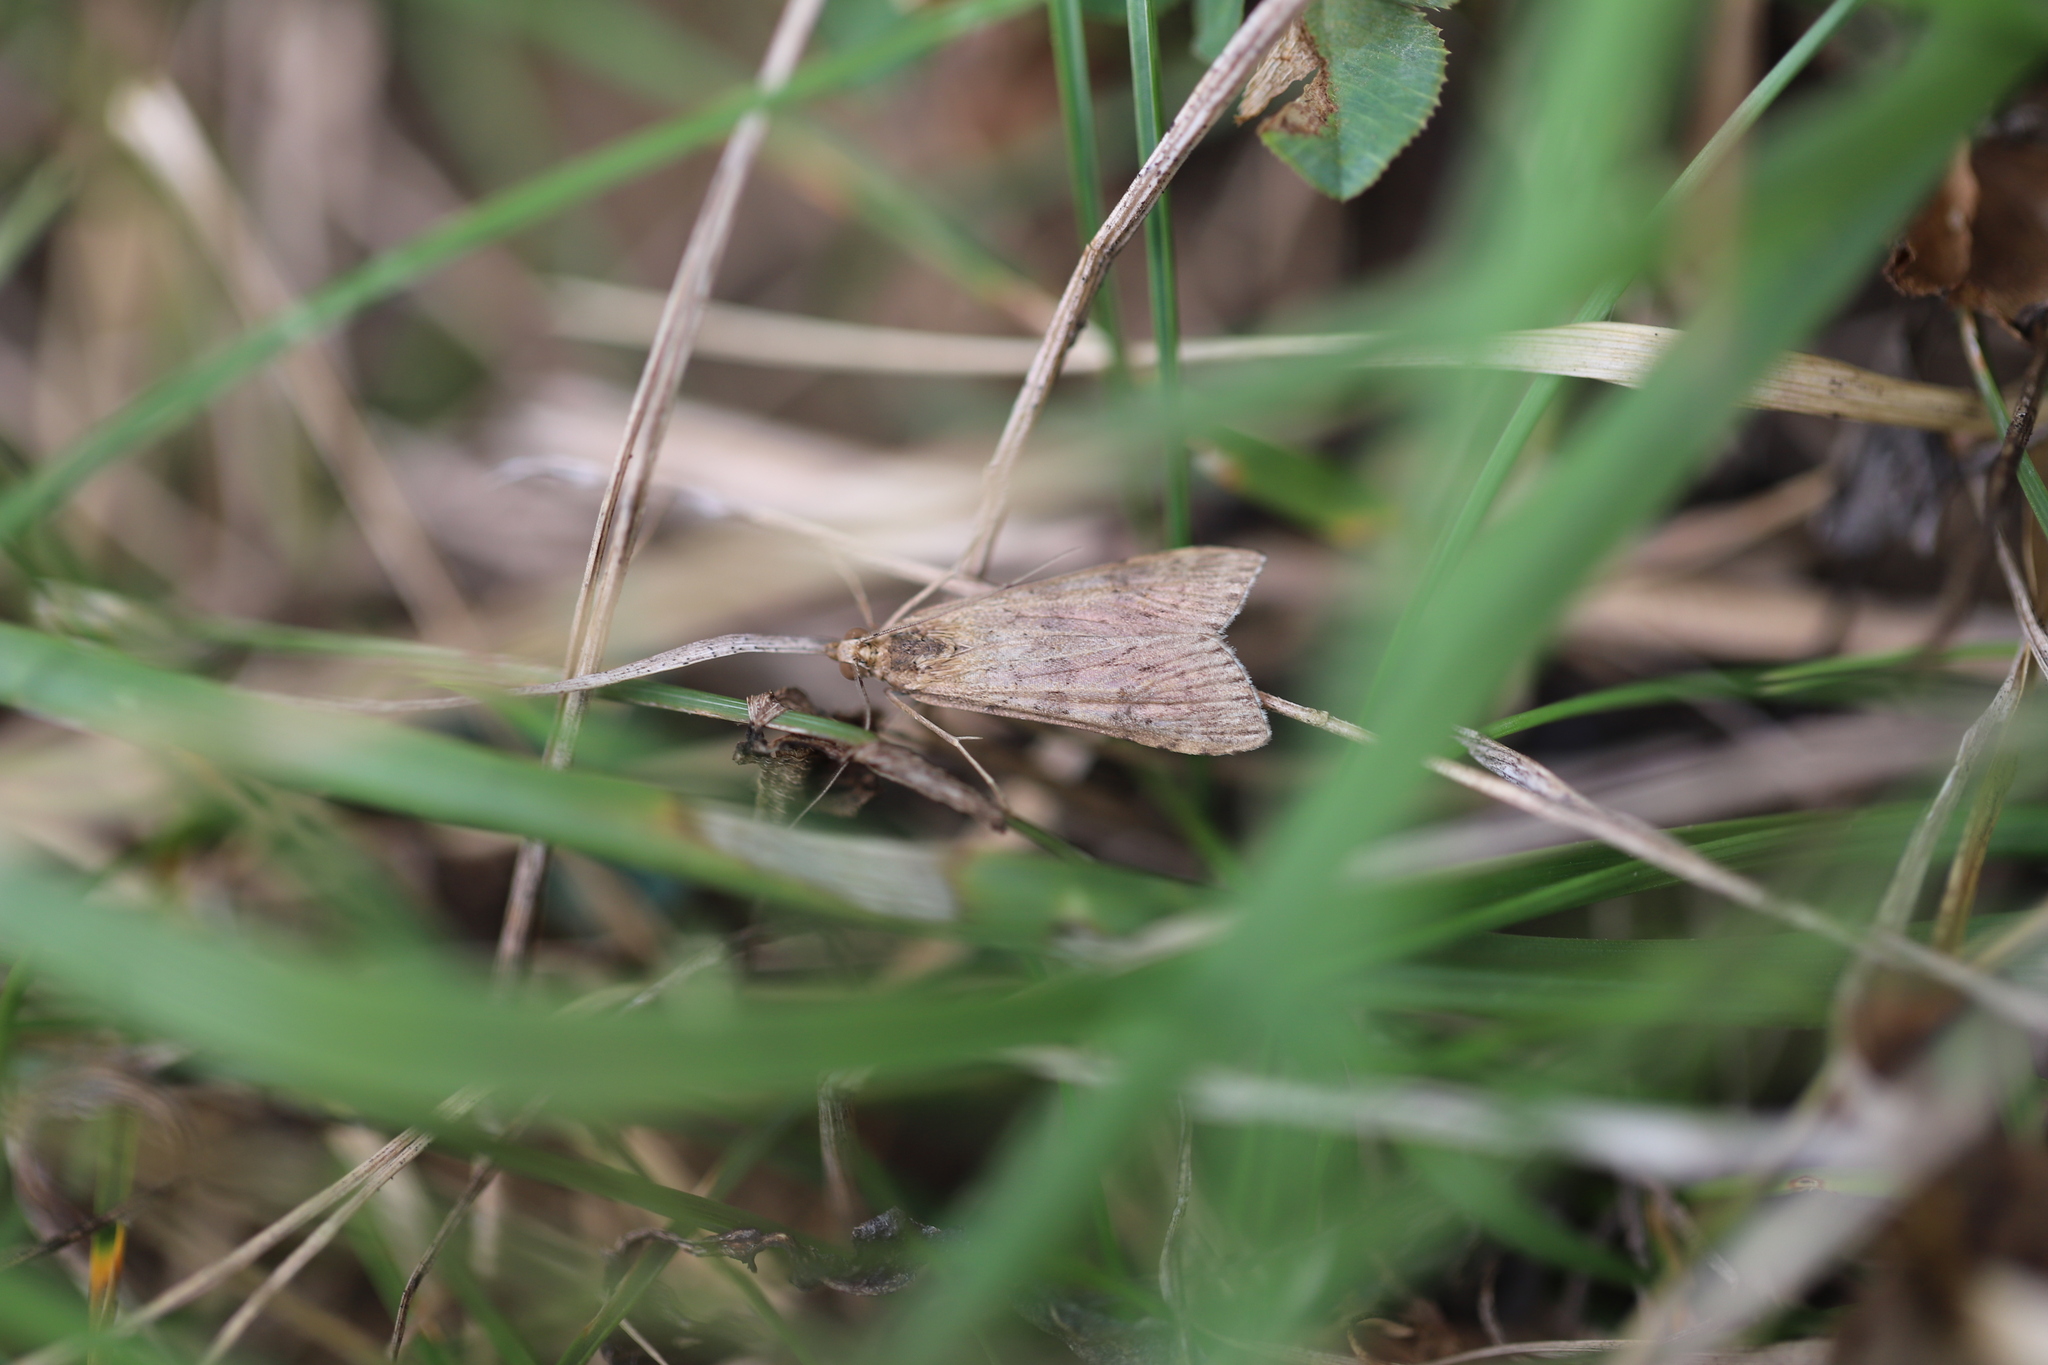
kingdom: Animalia
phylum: Arthropoda
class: Insecta
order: Lepidoptera
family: Crambidae
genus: Nomophila
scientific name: Nomophila nearctica
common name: American rush veneer
